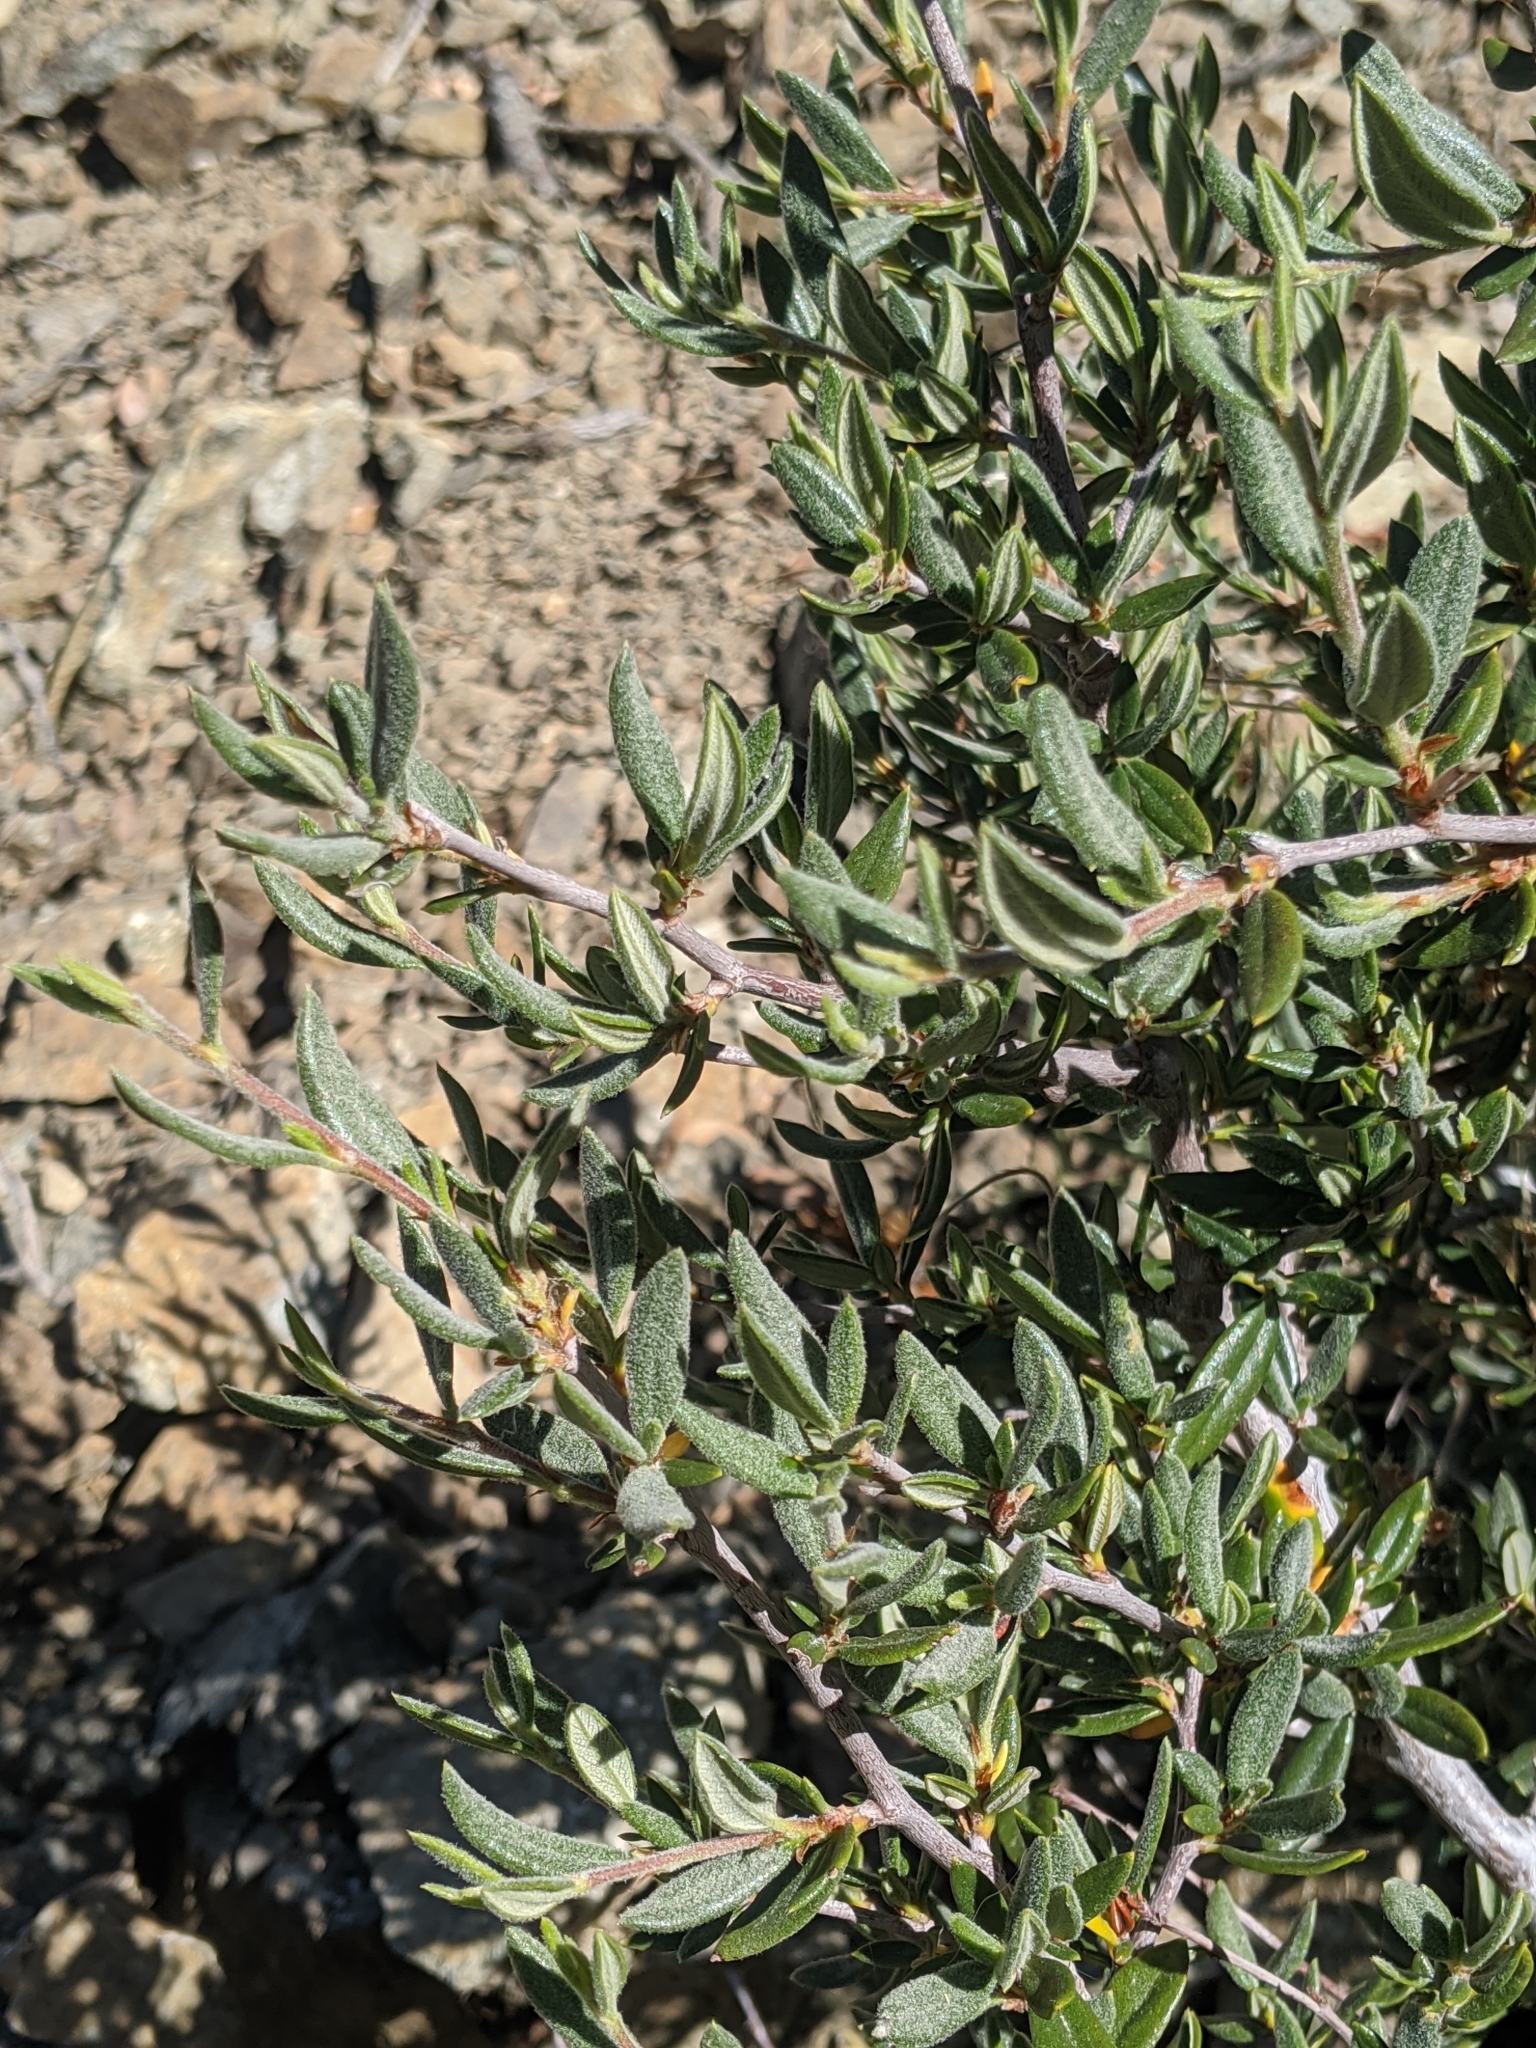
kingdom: Plantae
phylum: Tracheophyta
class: Magnoliopsida
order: Rosales
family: Rosaceae
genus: Cercocarpus
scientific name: Cercocarpus ledifolius
